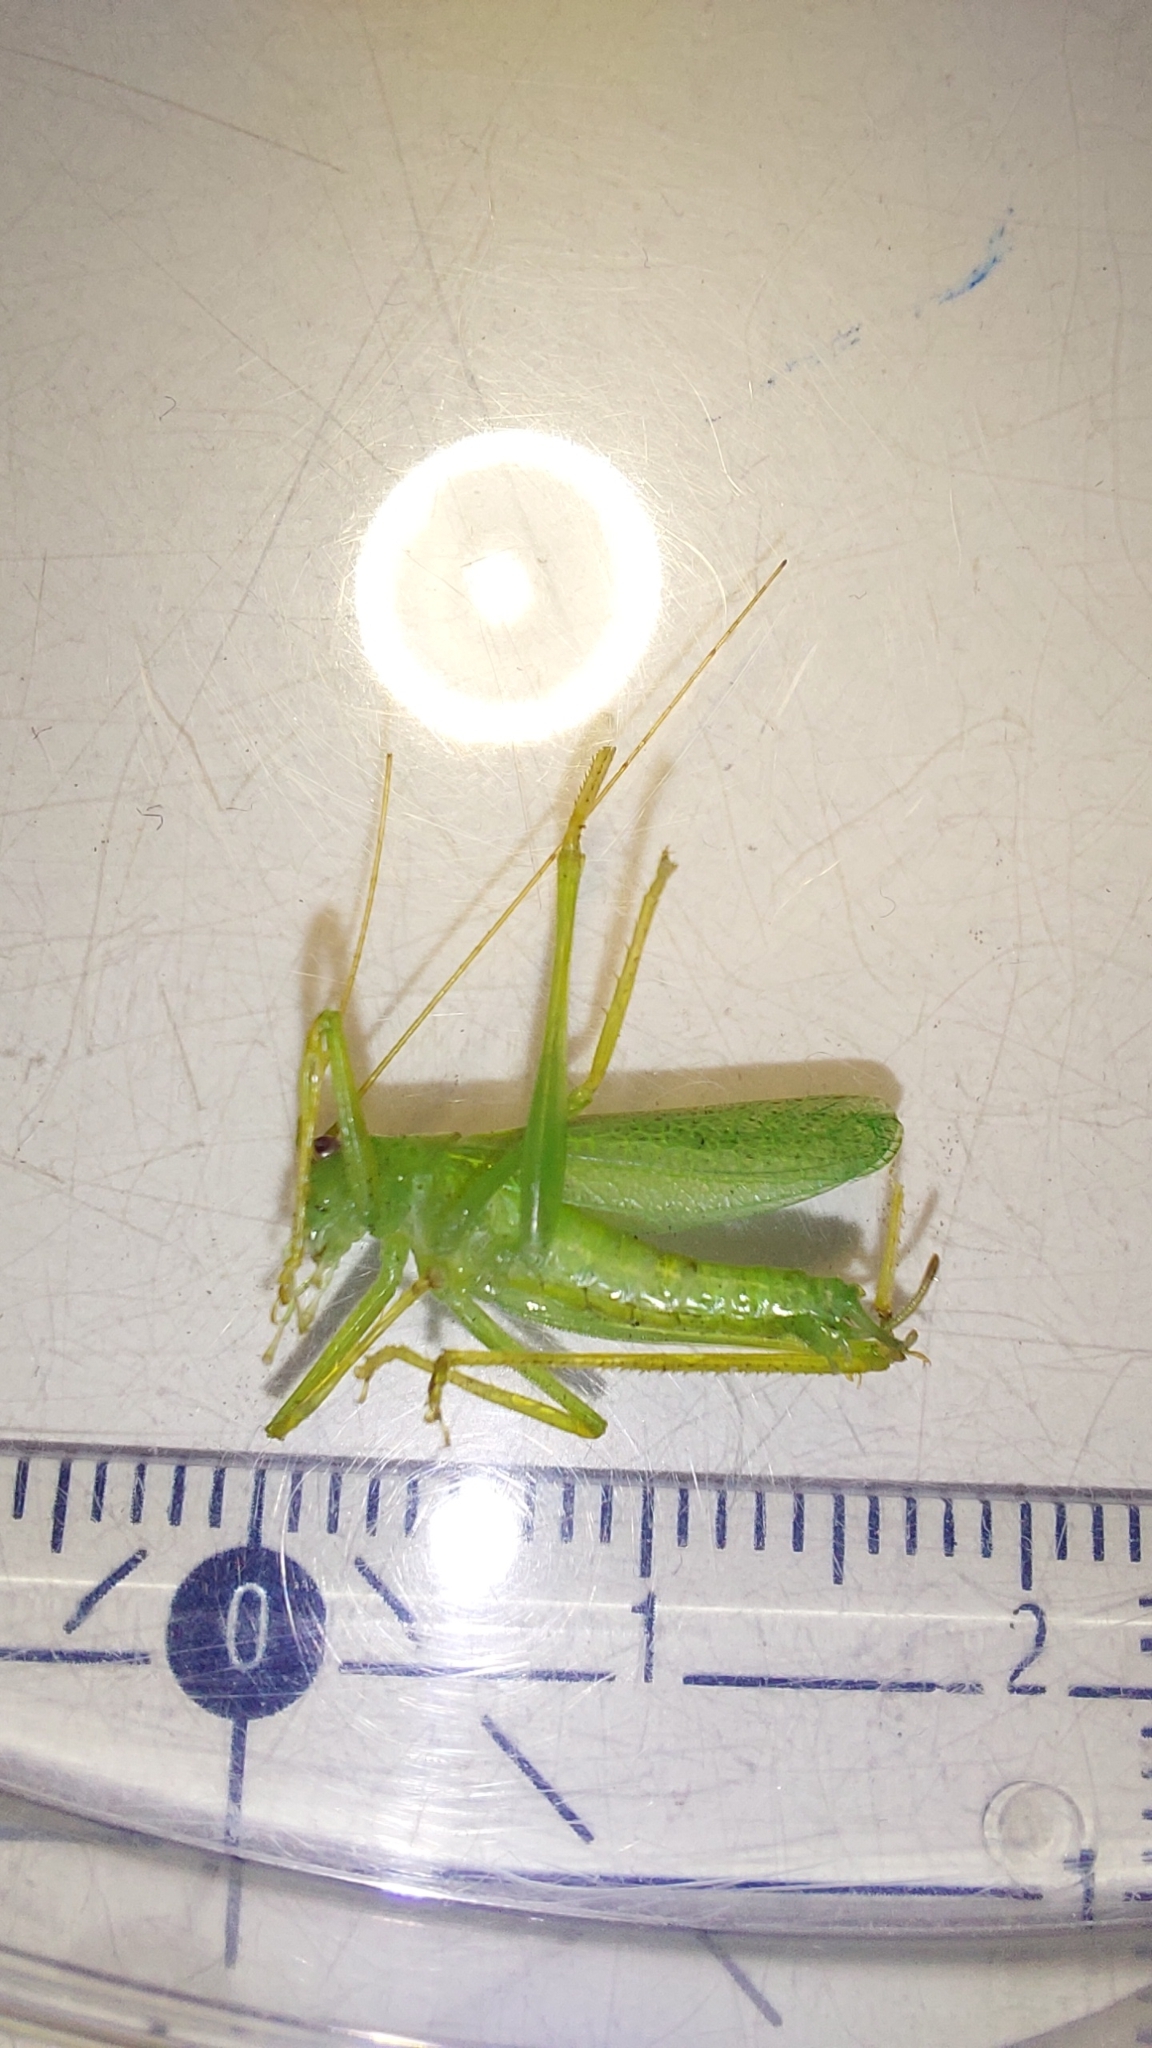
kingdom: Animalia
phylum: Arthropoda
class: Insecta
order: Orthoptera
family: Tettigoniidae
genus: Meconema
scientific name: Meconema thalassinum
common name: Oak bush-cricket
